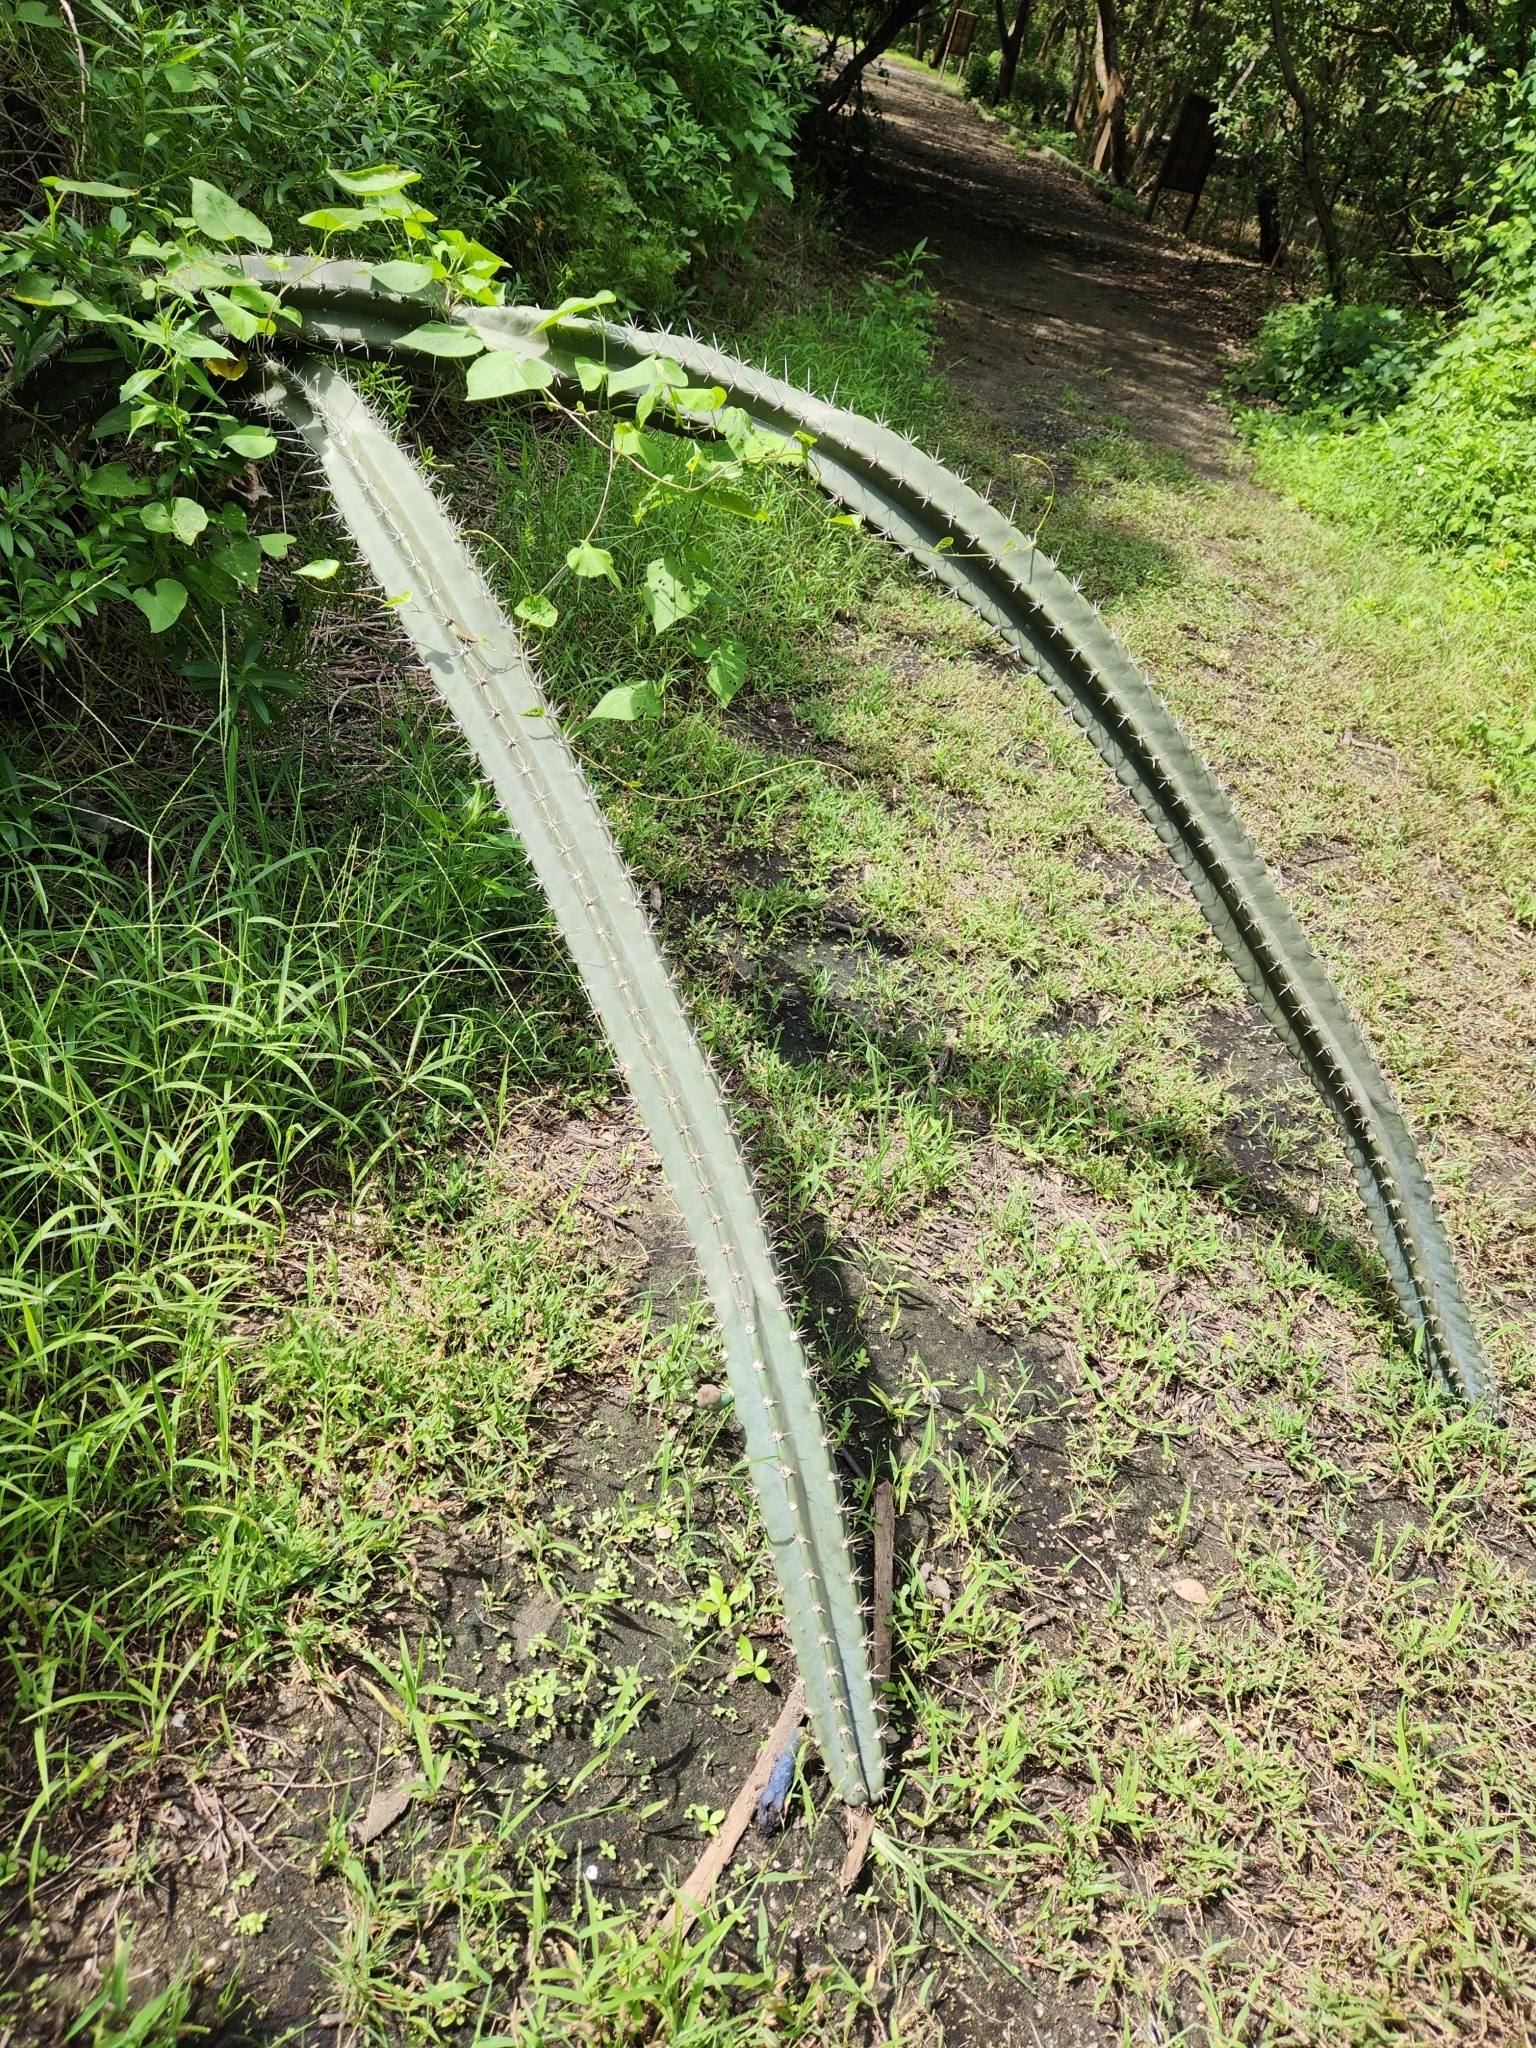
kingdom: Plantae
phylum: Tracheophyta
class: Magnoliopsida
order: Caryophyllales
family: Cactaceae
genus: Acanthocereus
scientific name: Acanthocereus tetragonus
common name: Triangle cactus
